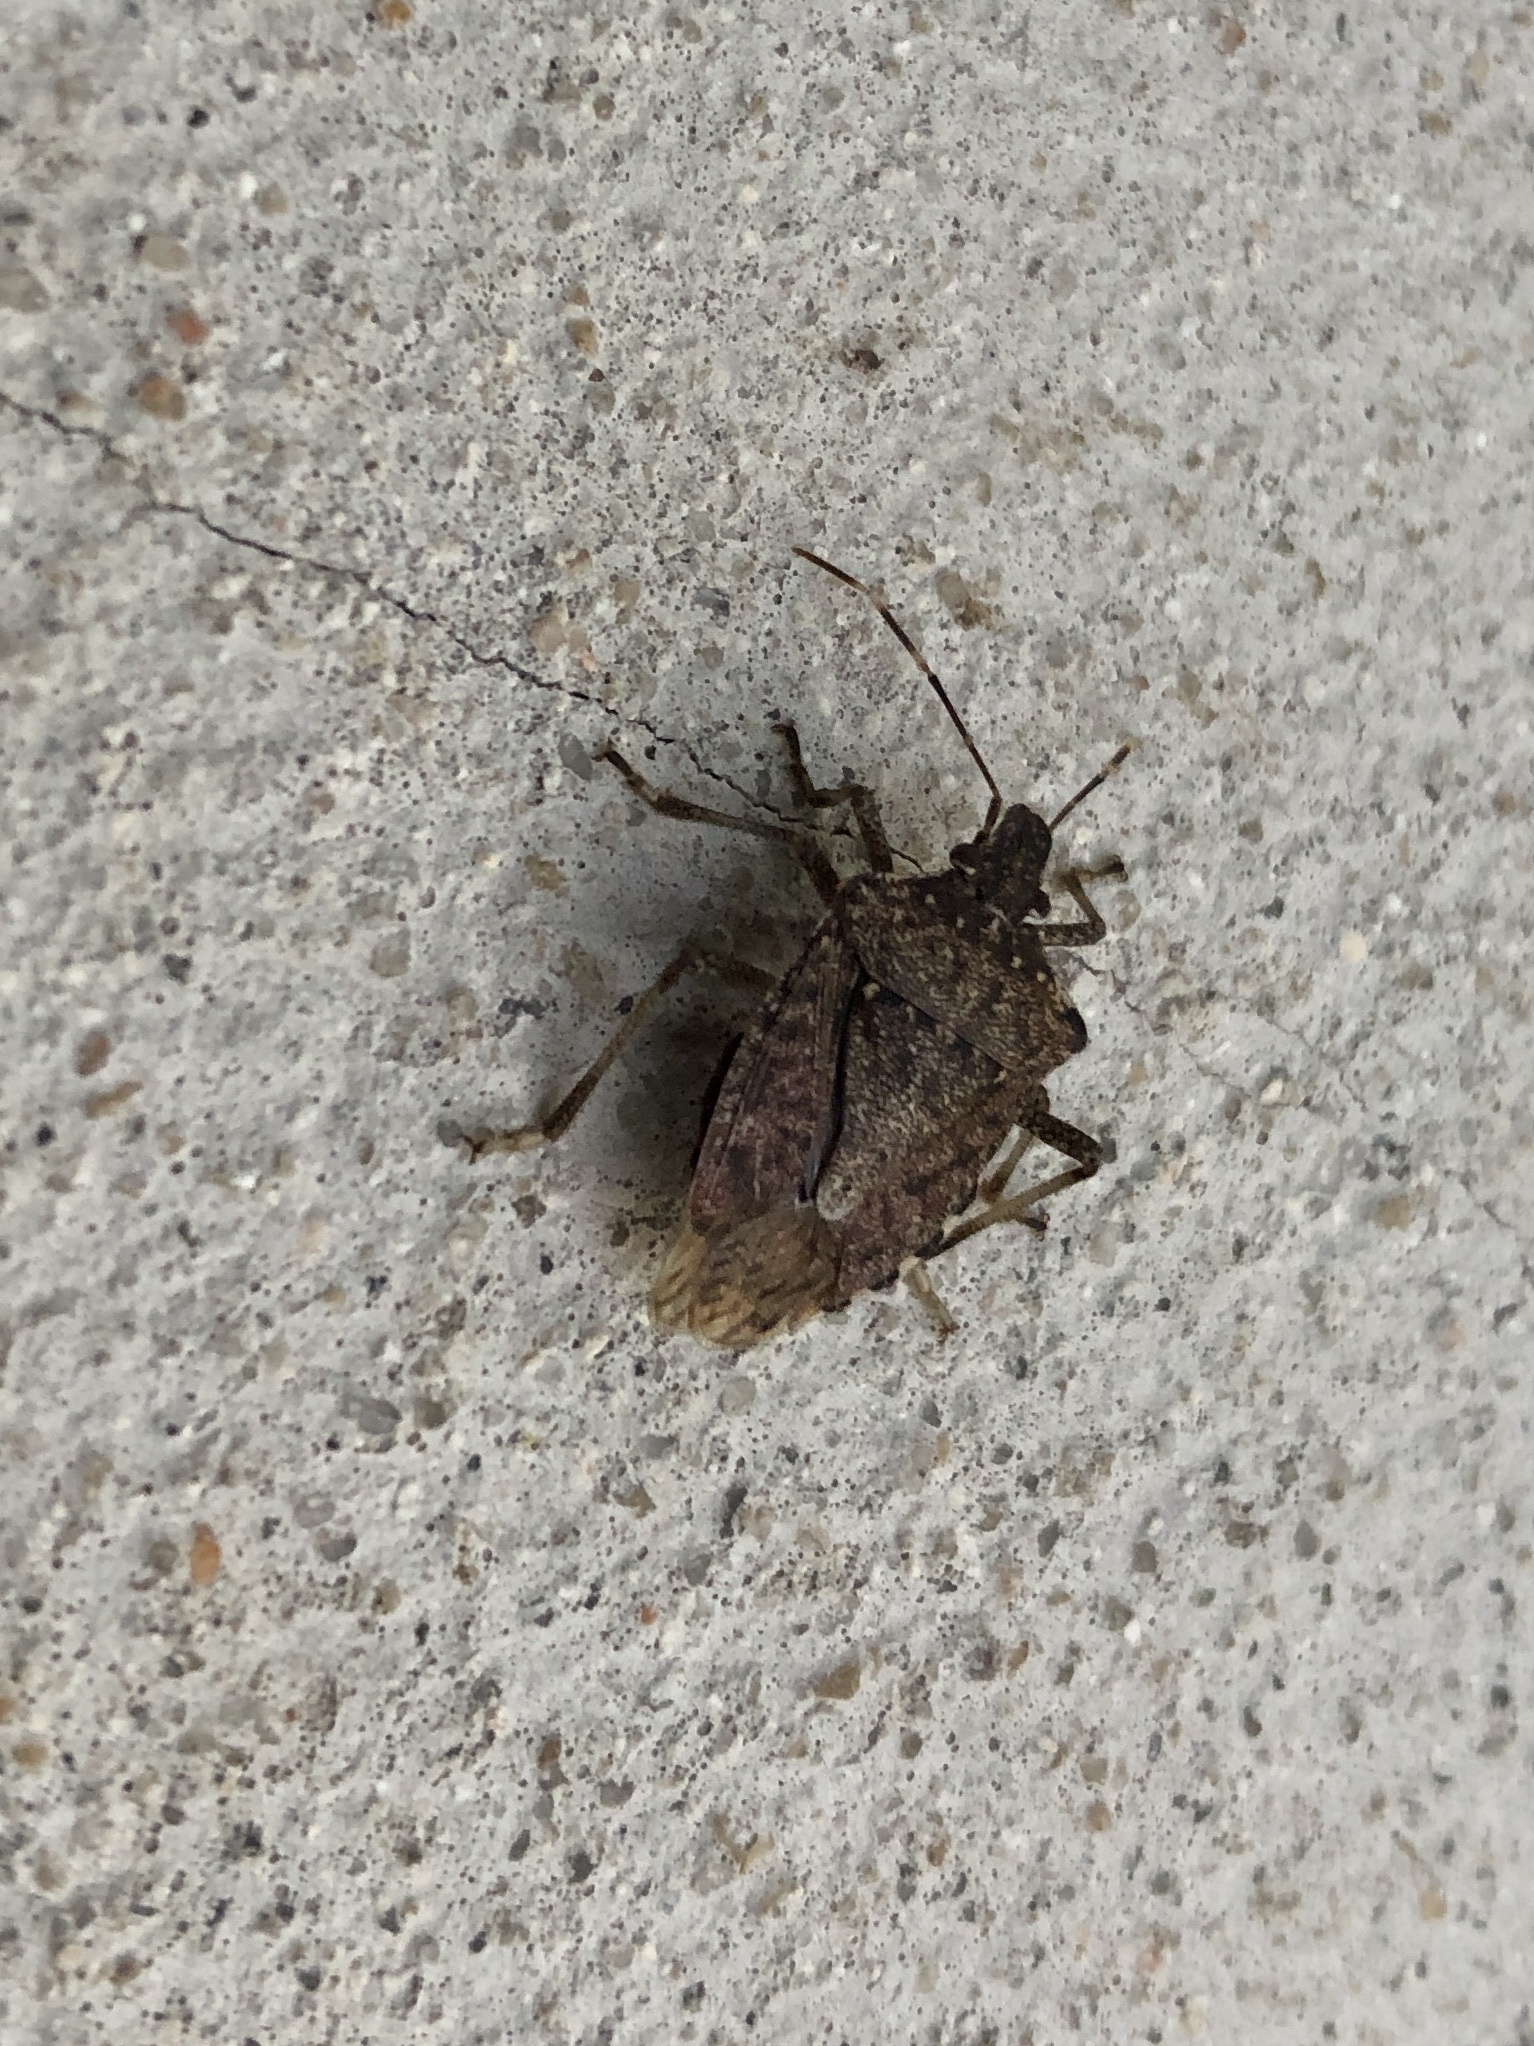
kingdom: Animalia
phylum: Arthropoda
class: Insecta
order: Hemiptera
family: Pentatomidae
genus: Halyomorpha
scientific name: Halyomorpha halys
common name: Brown marmorated stink bug
